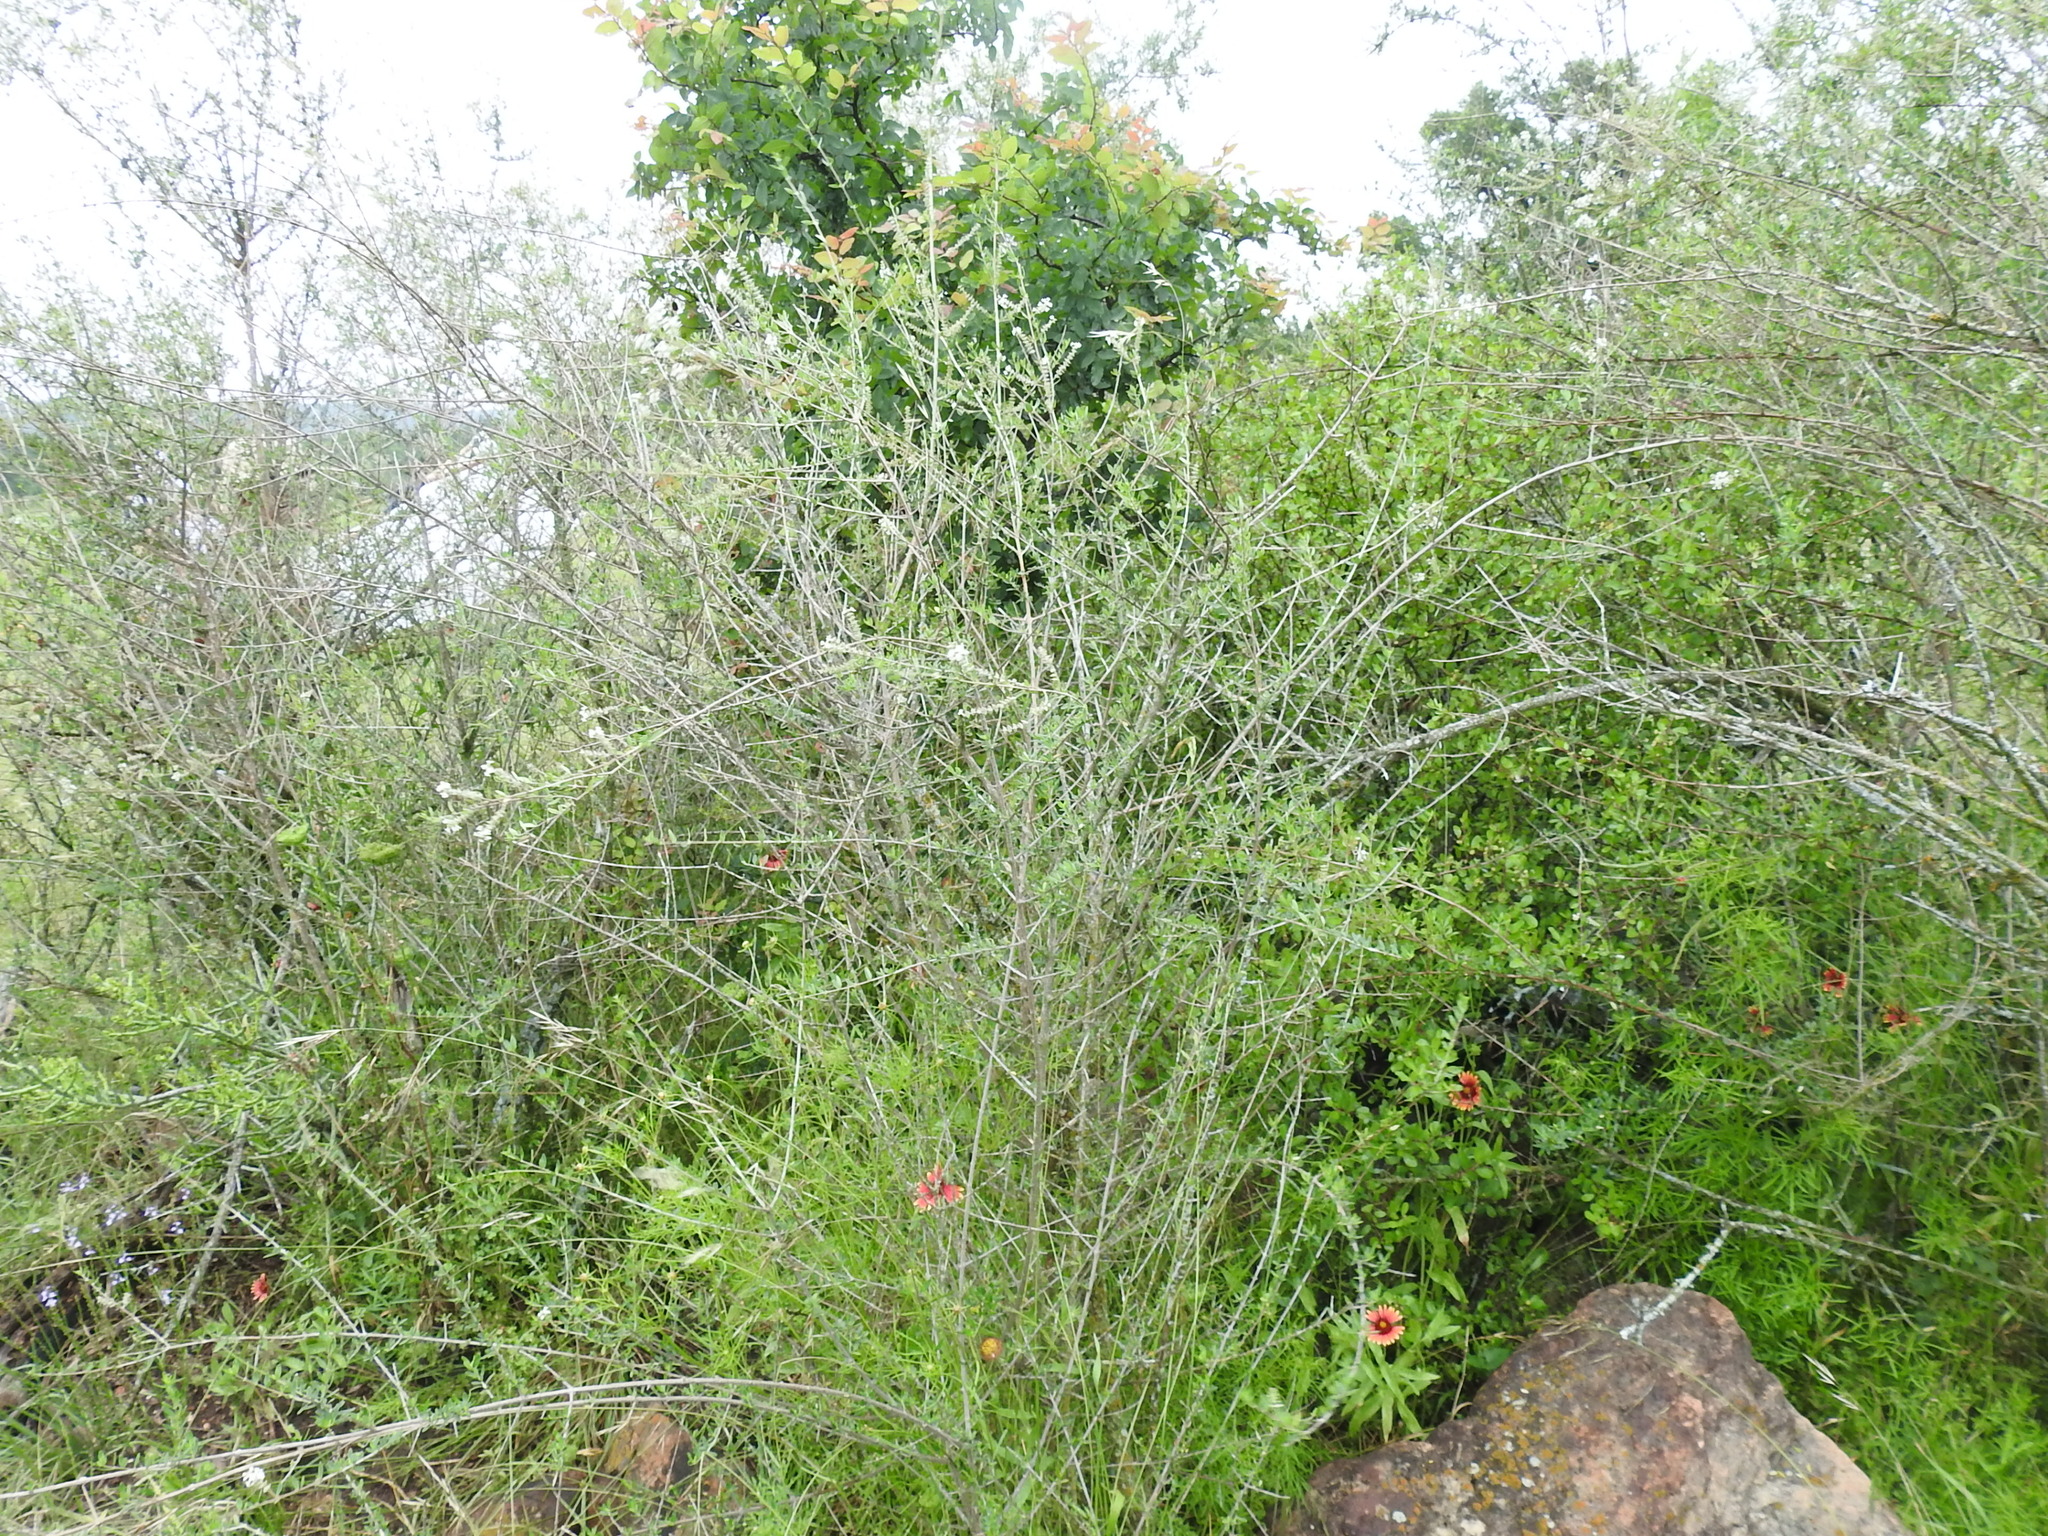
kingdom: Plantae
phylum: Tracheophyta
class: Magnoliopsida
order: Lamiales
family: Verbenaceae
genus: Aloysia
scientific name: Aloysia gratissima
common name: Common bee-brush
